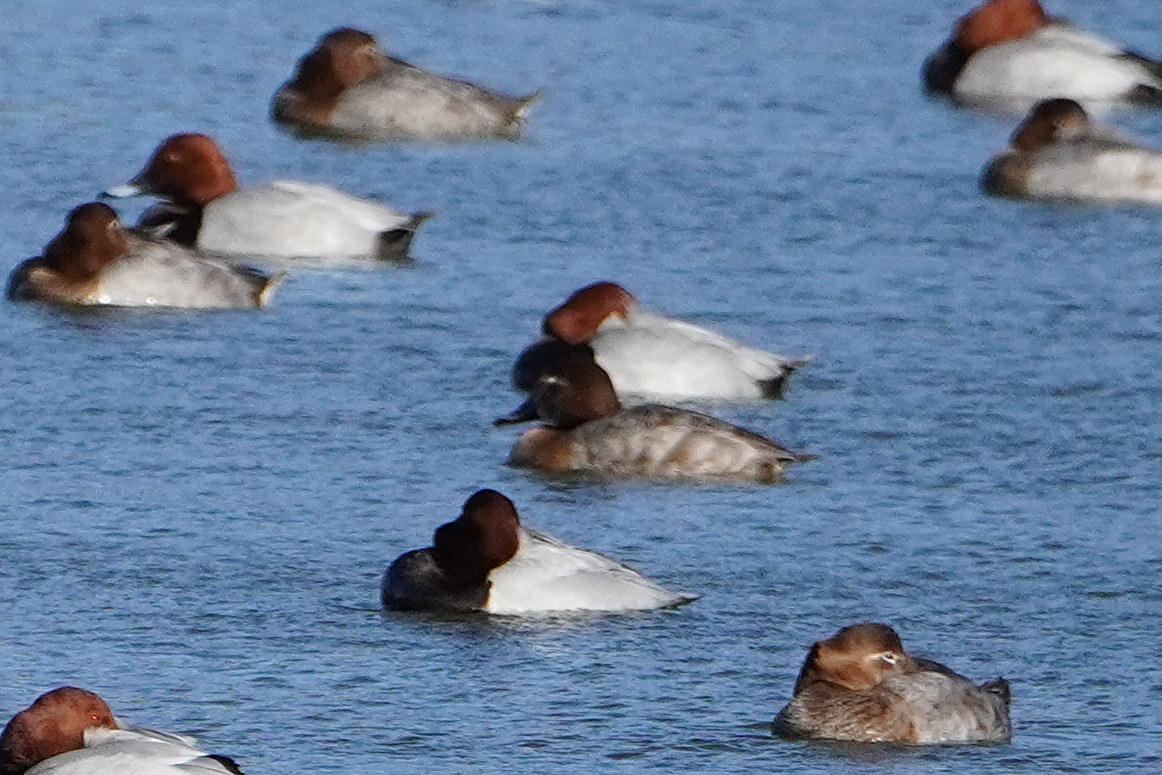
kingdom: Animalia
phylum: Chordata
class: Aves
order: Anseriformes
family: Anatidae
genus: Aythya
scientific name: Aythya ferina
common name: Common pochard
